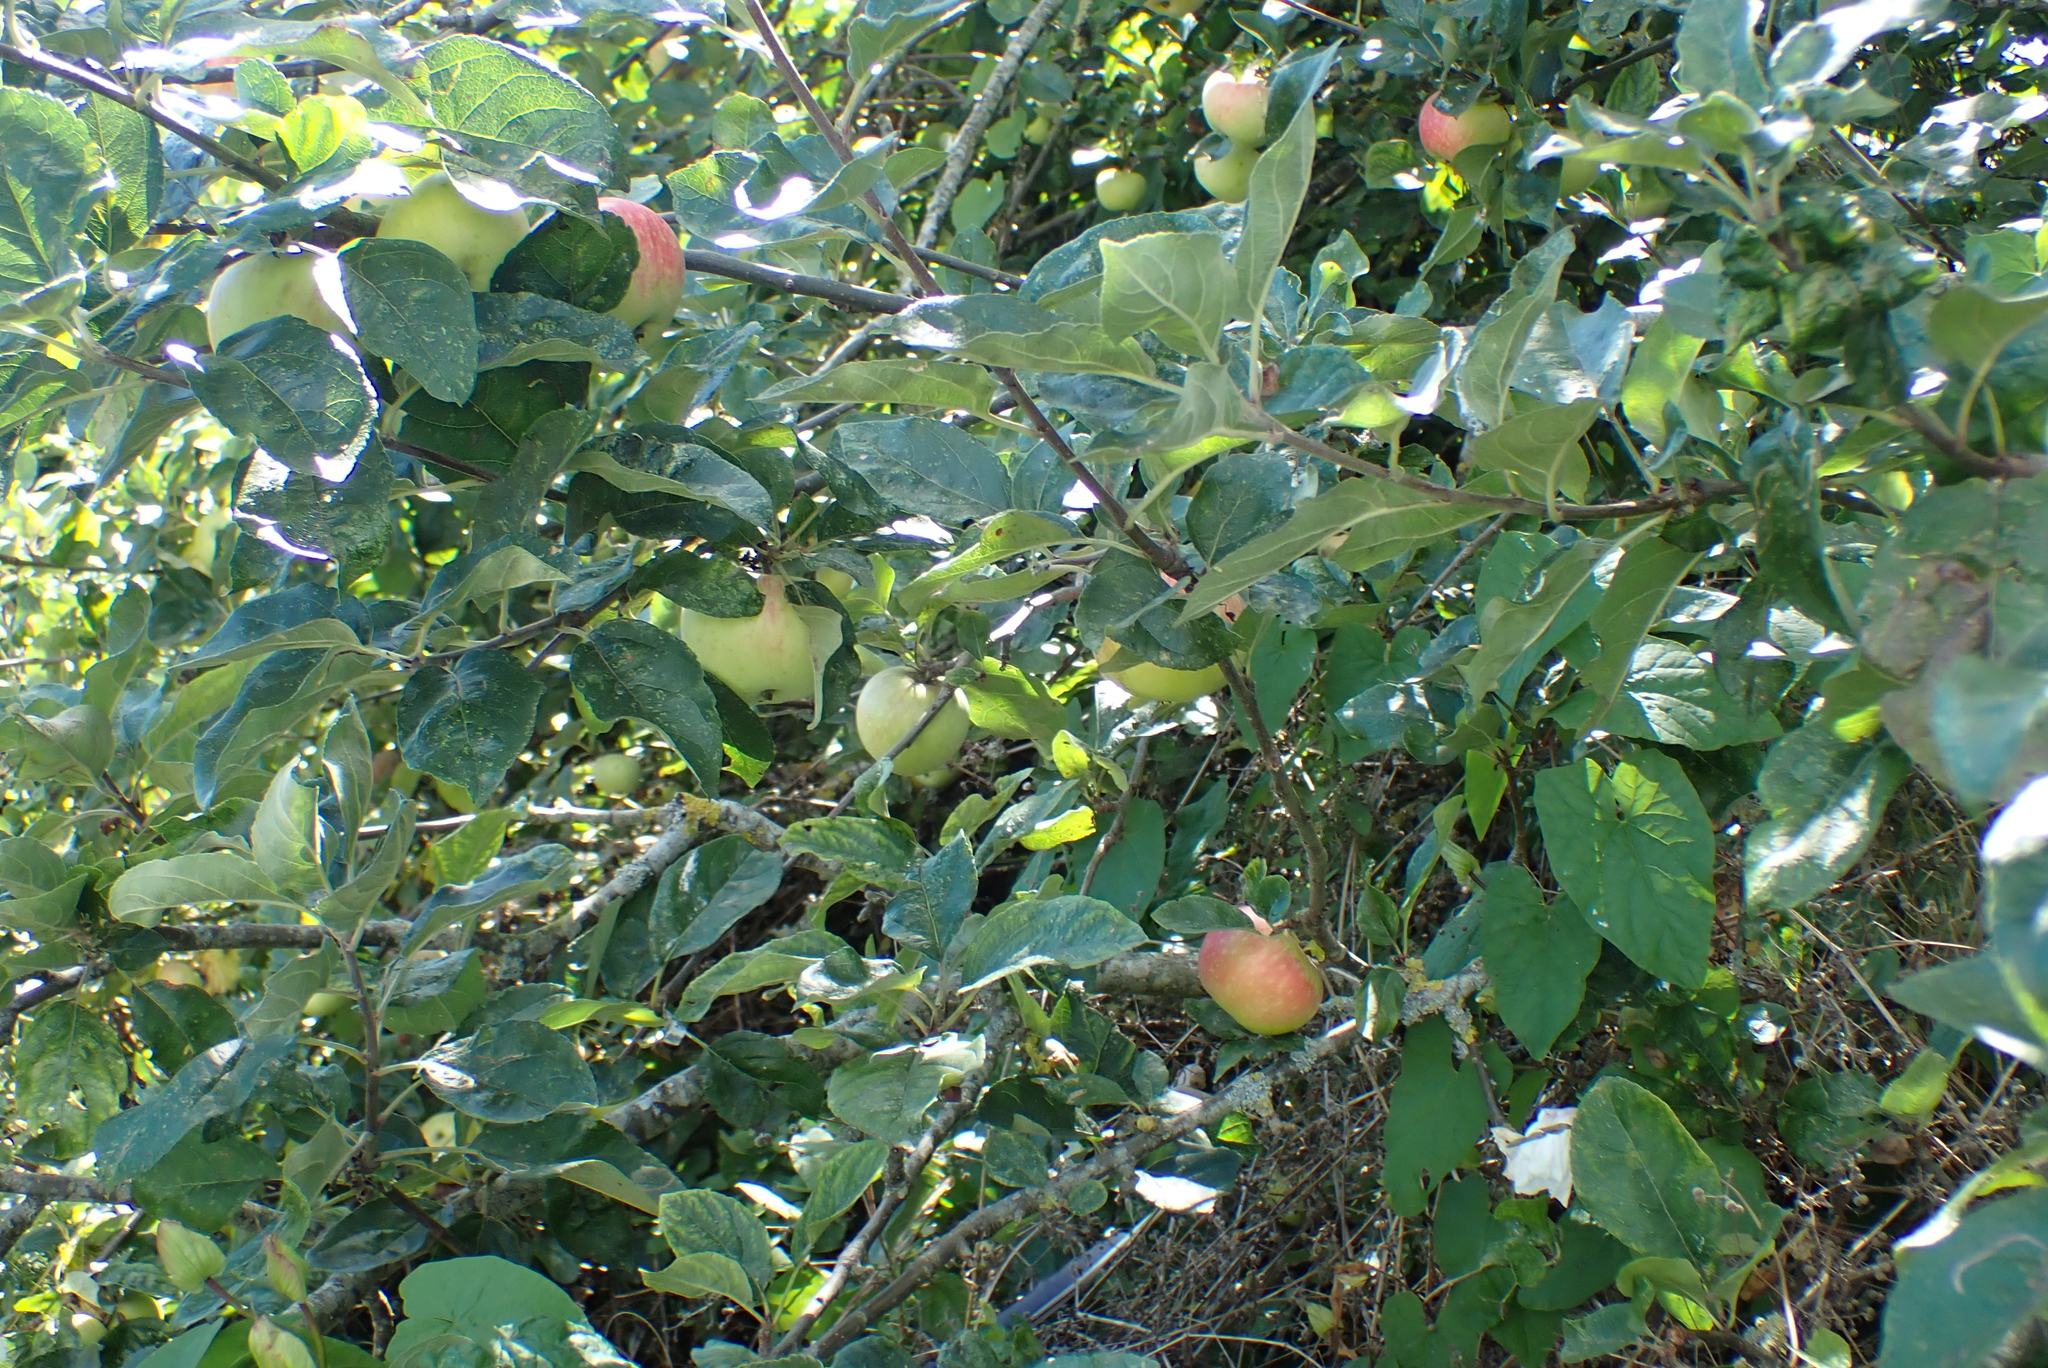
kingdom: Plantae
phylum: Tracheophyta
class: Magnoliopsida
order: Rosales
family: Rosaceae
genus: Malus
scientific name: Malus domestica
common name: Apple
